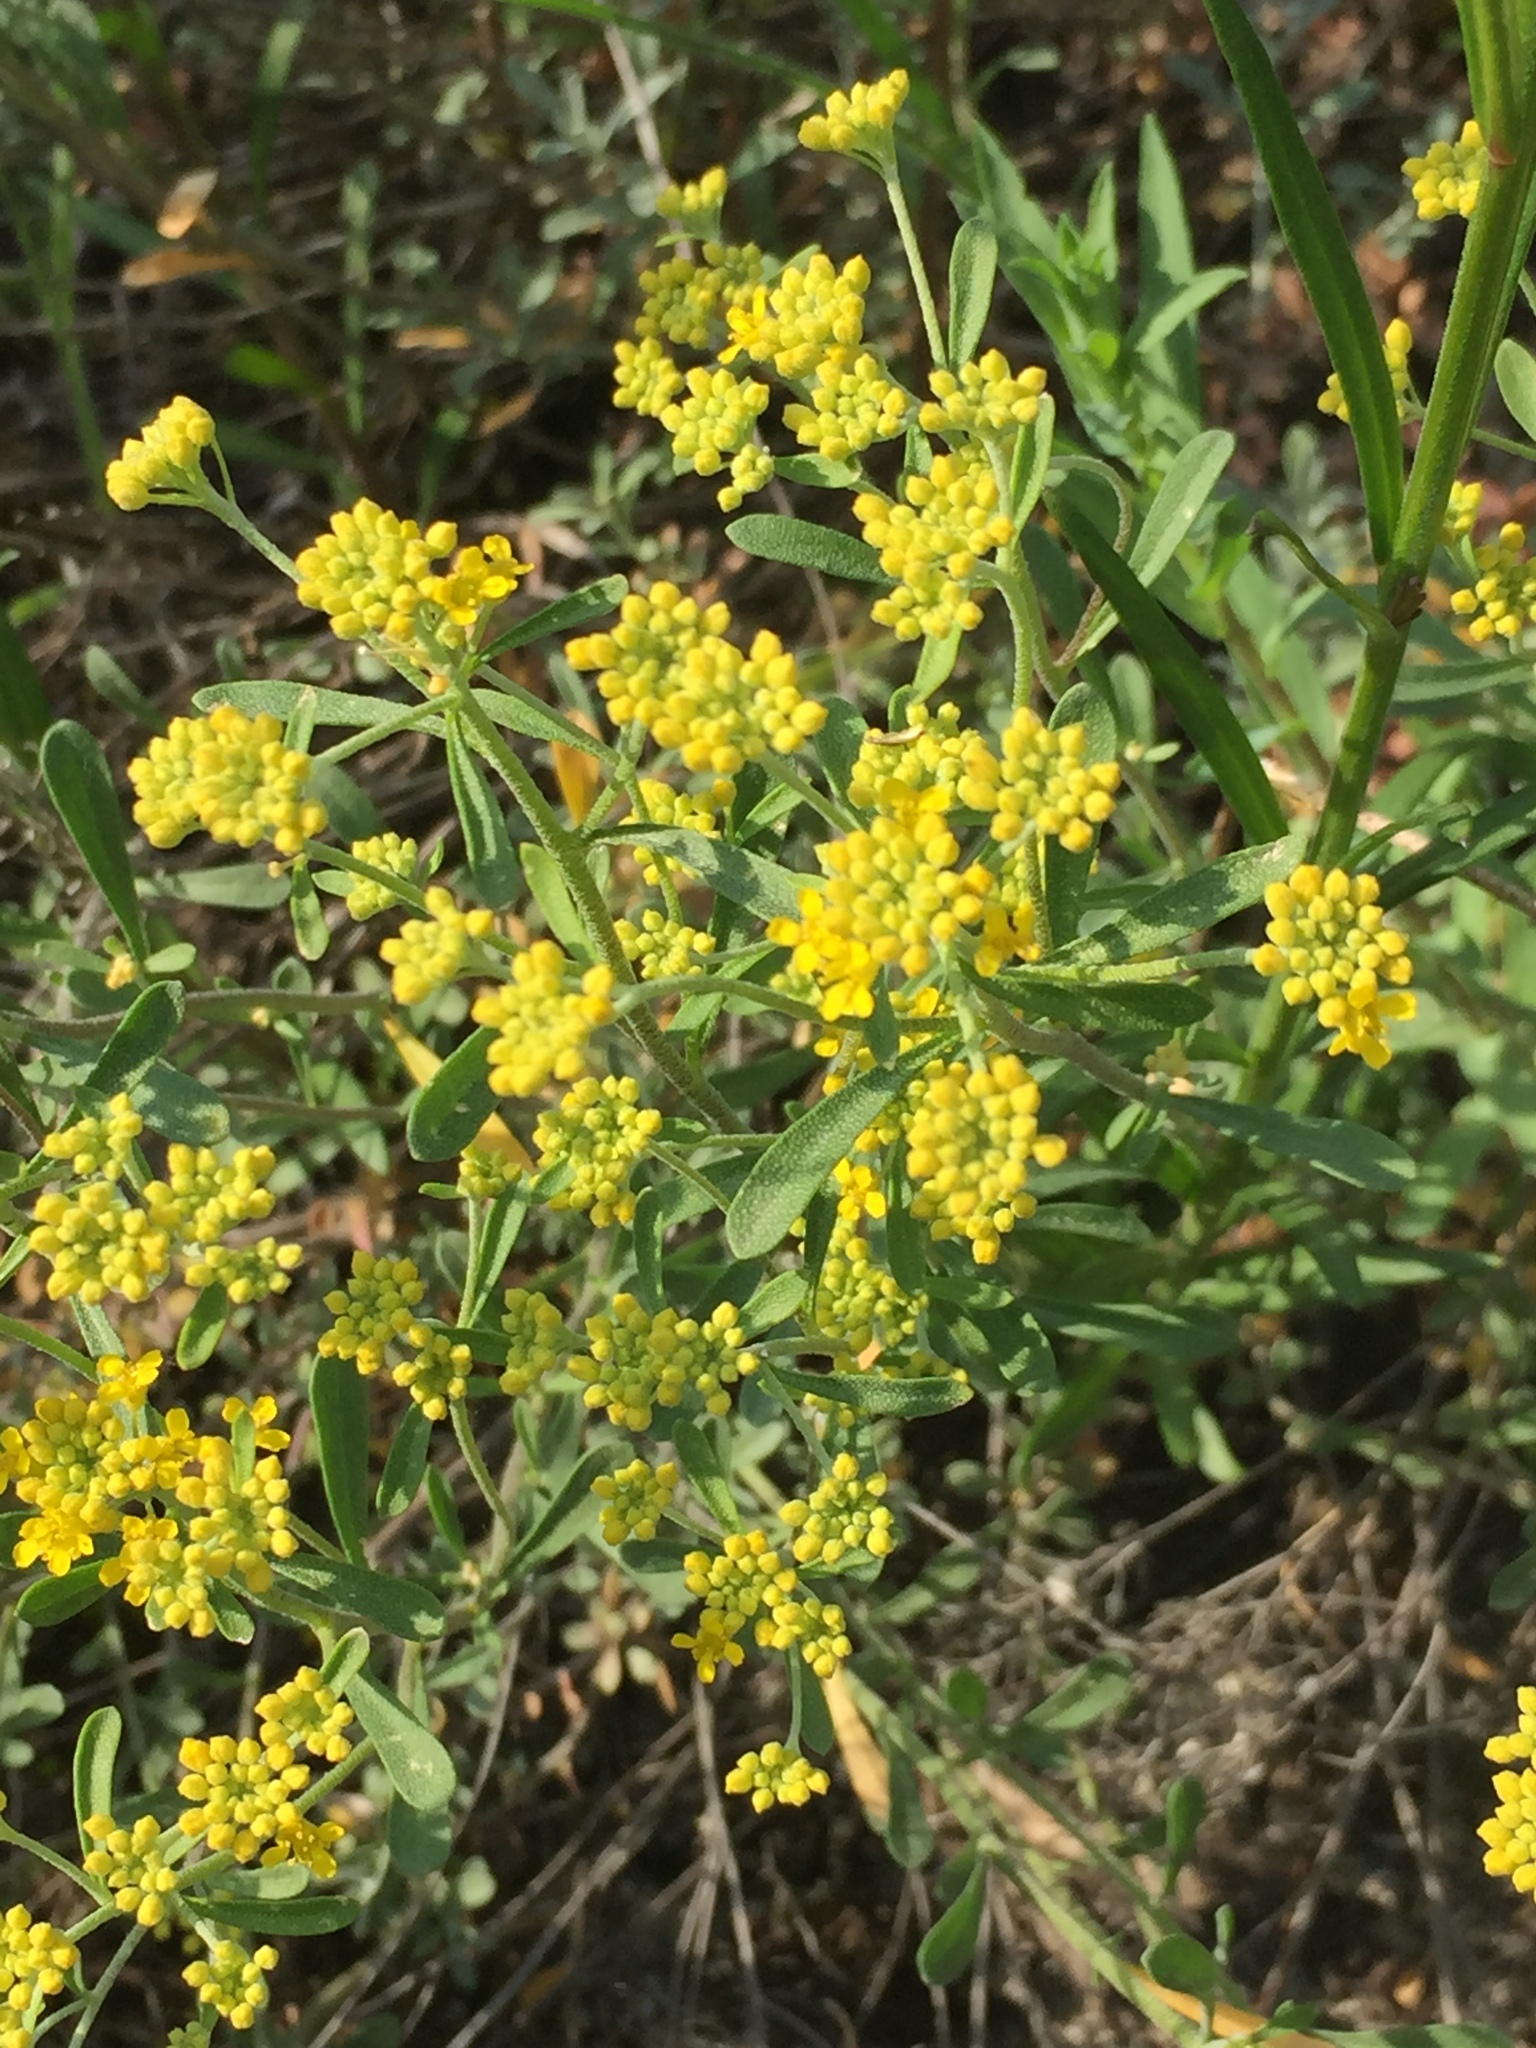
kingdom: Plantae
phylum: Tracheophyta
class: Magnoliopsida
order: Brassicales
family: Brassicaceae
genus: Odontarrhena
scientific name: Odontarrhena tortuosa
